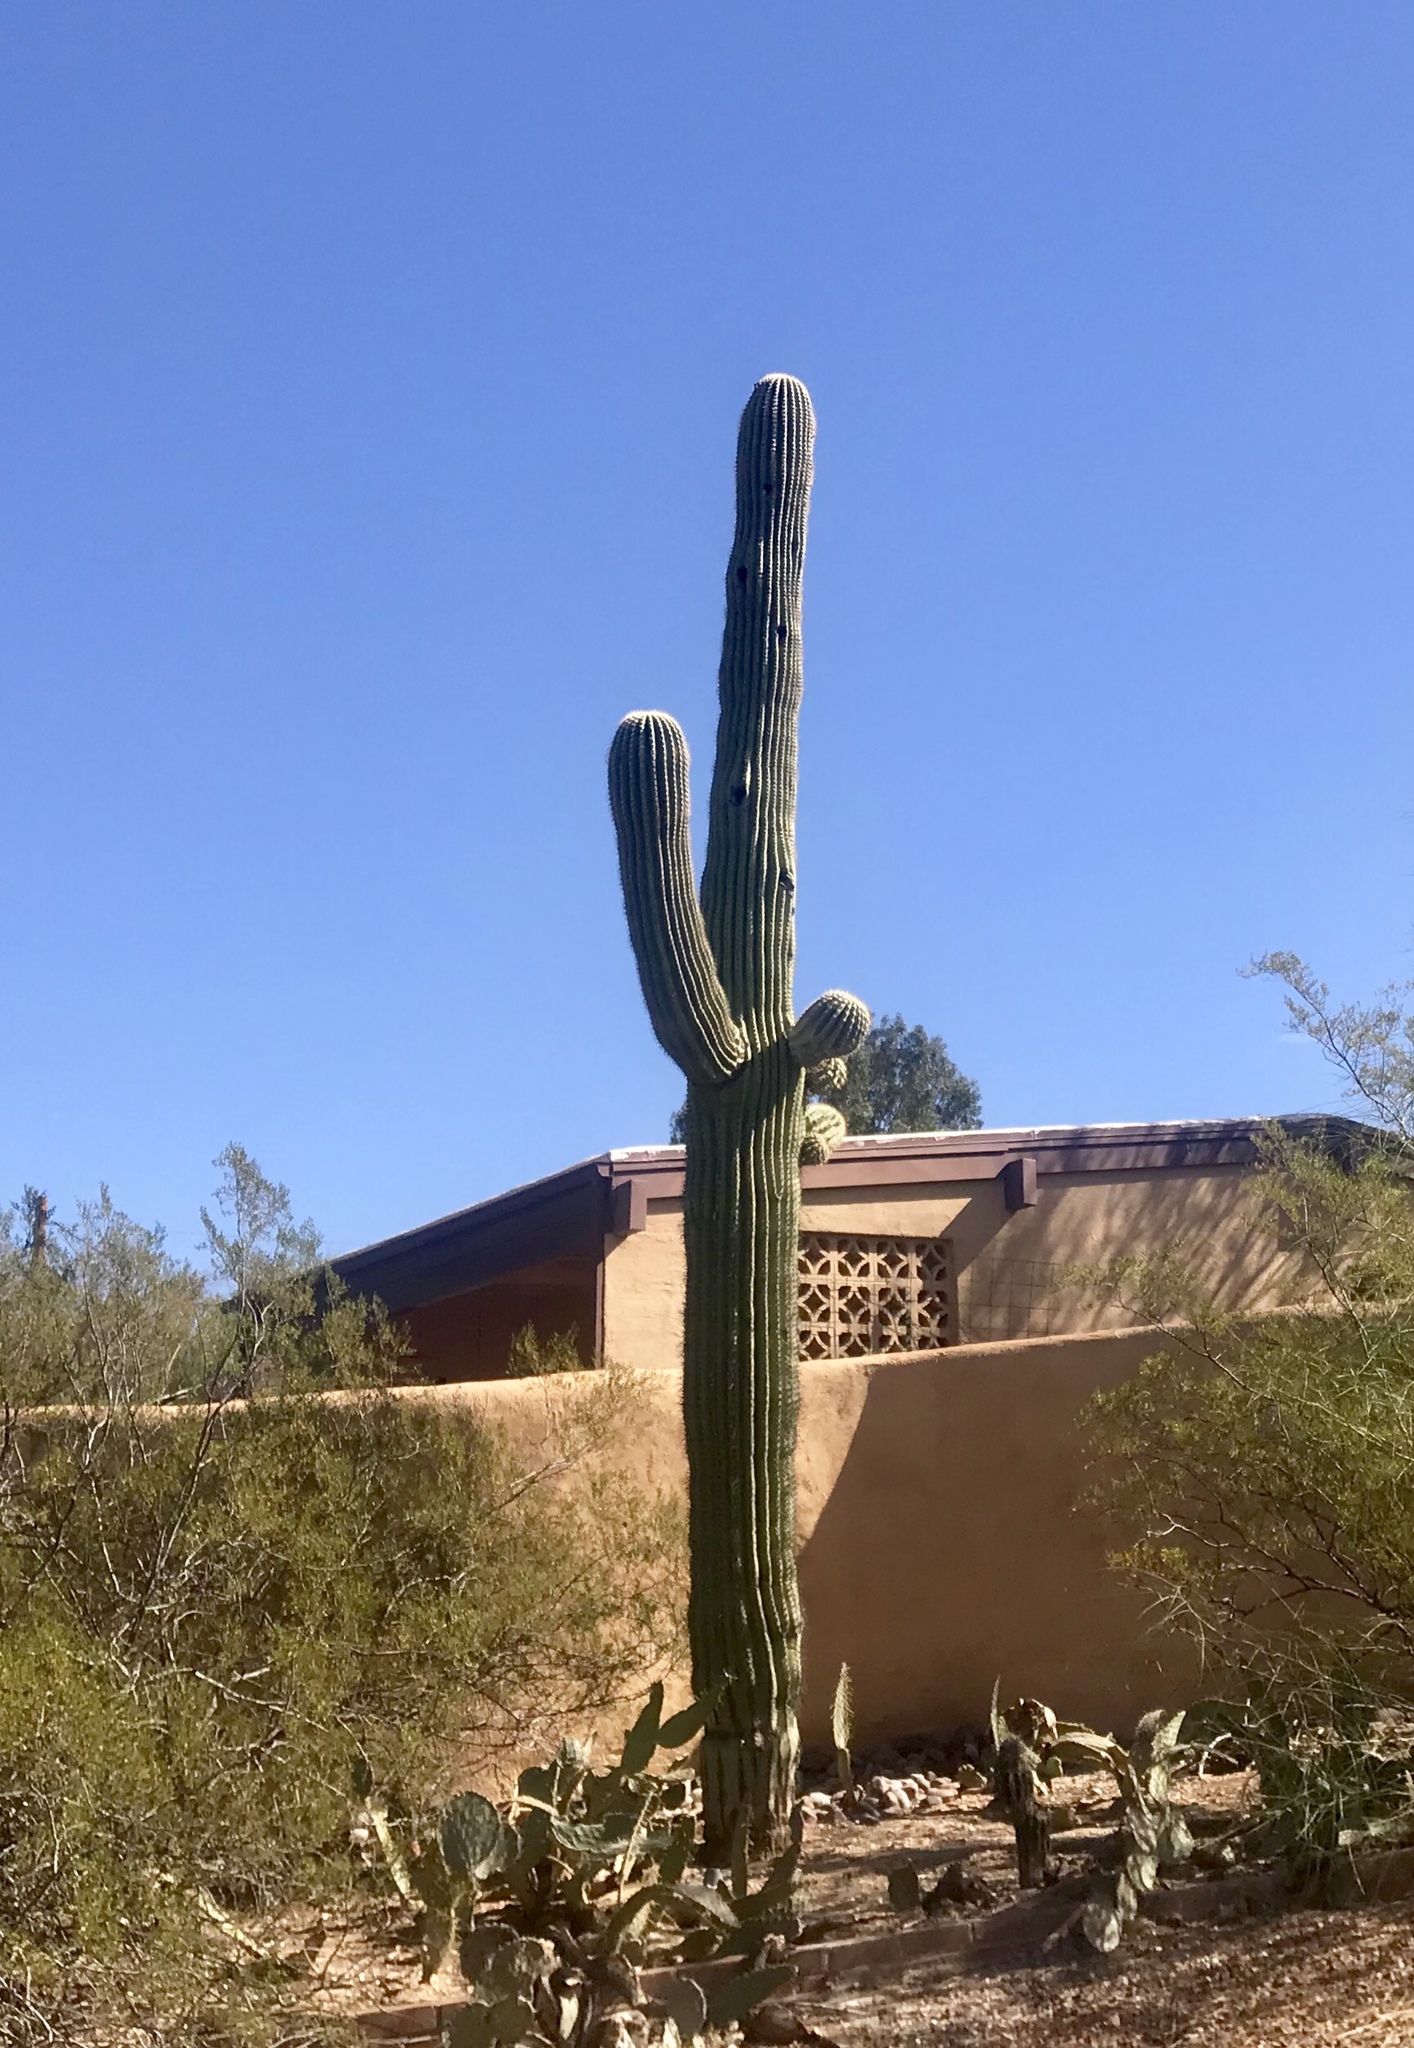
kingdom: Plantae
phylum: Tracheophyta
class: Magnoliopsida
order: Caryophyllales
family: Cactaceae
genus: Carnegiea
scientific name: Carnegiea gigantea
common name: Saguaro
